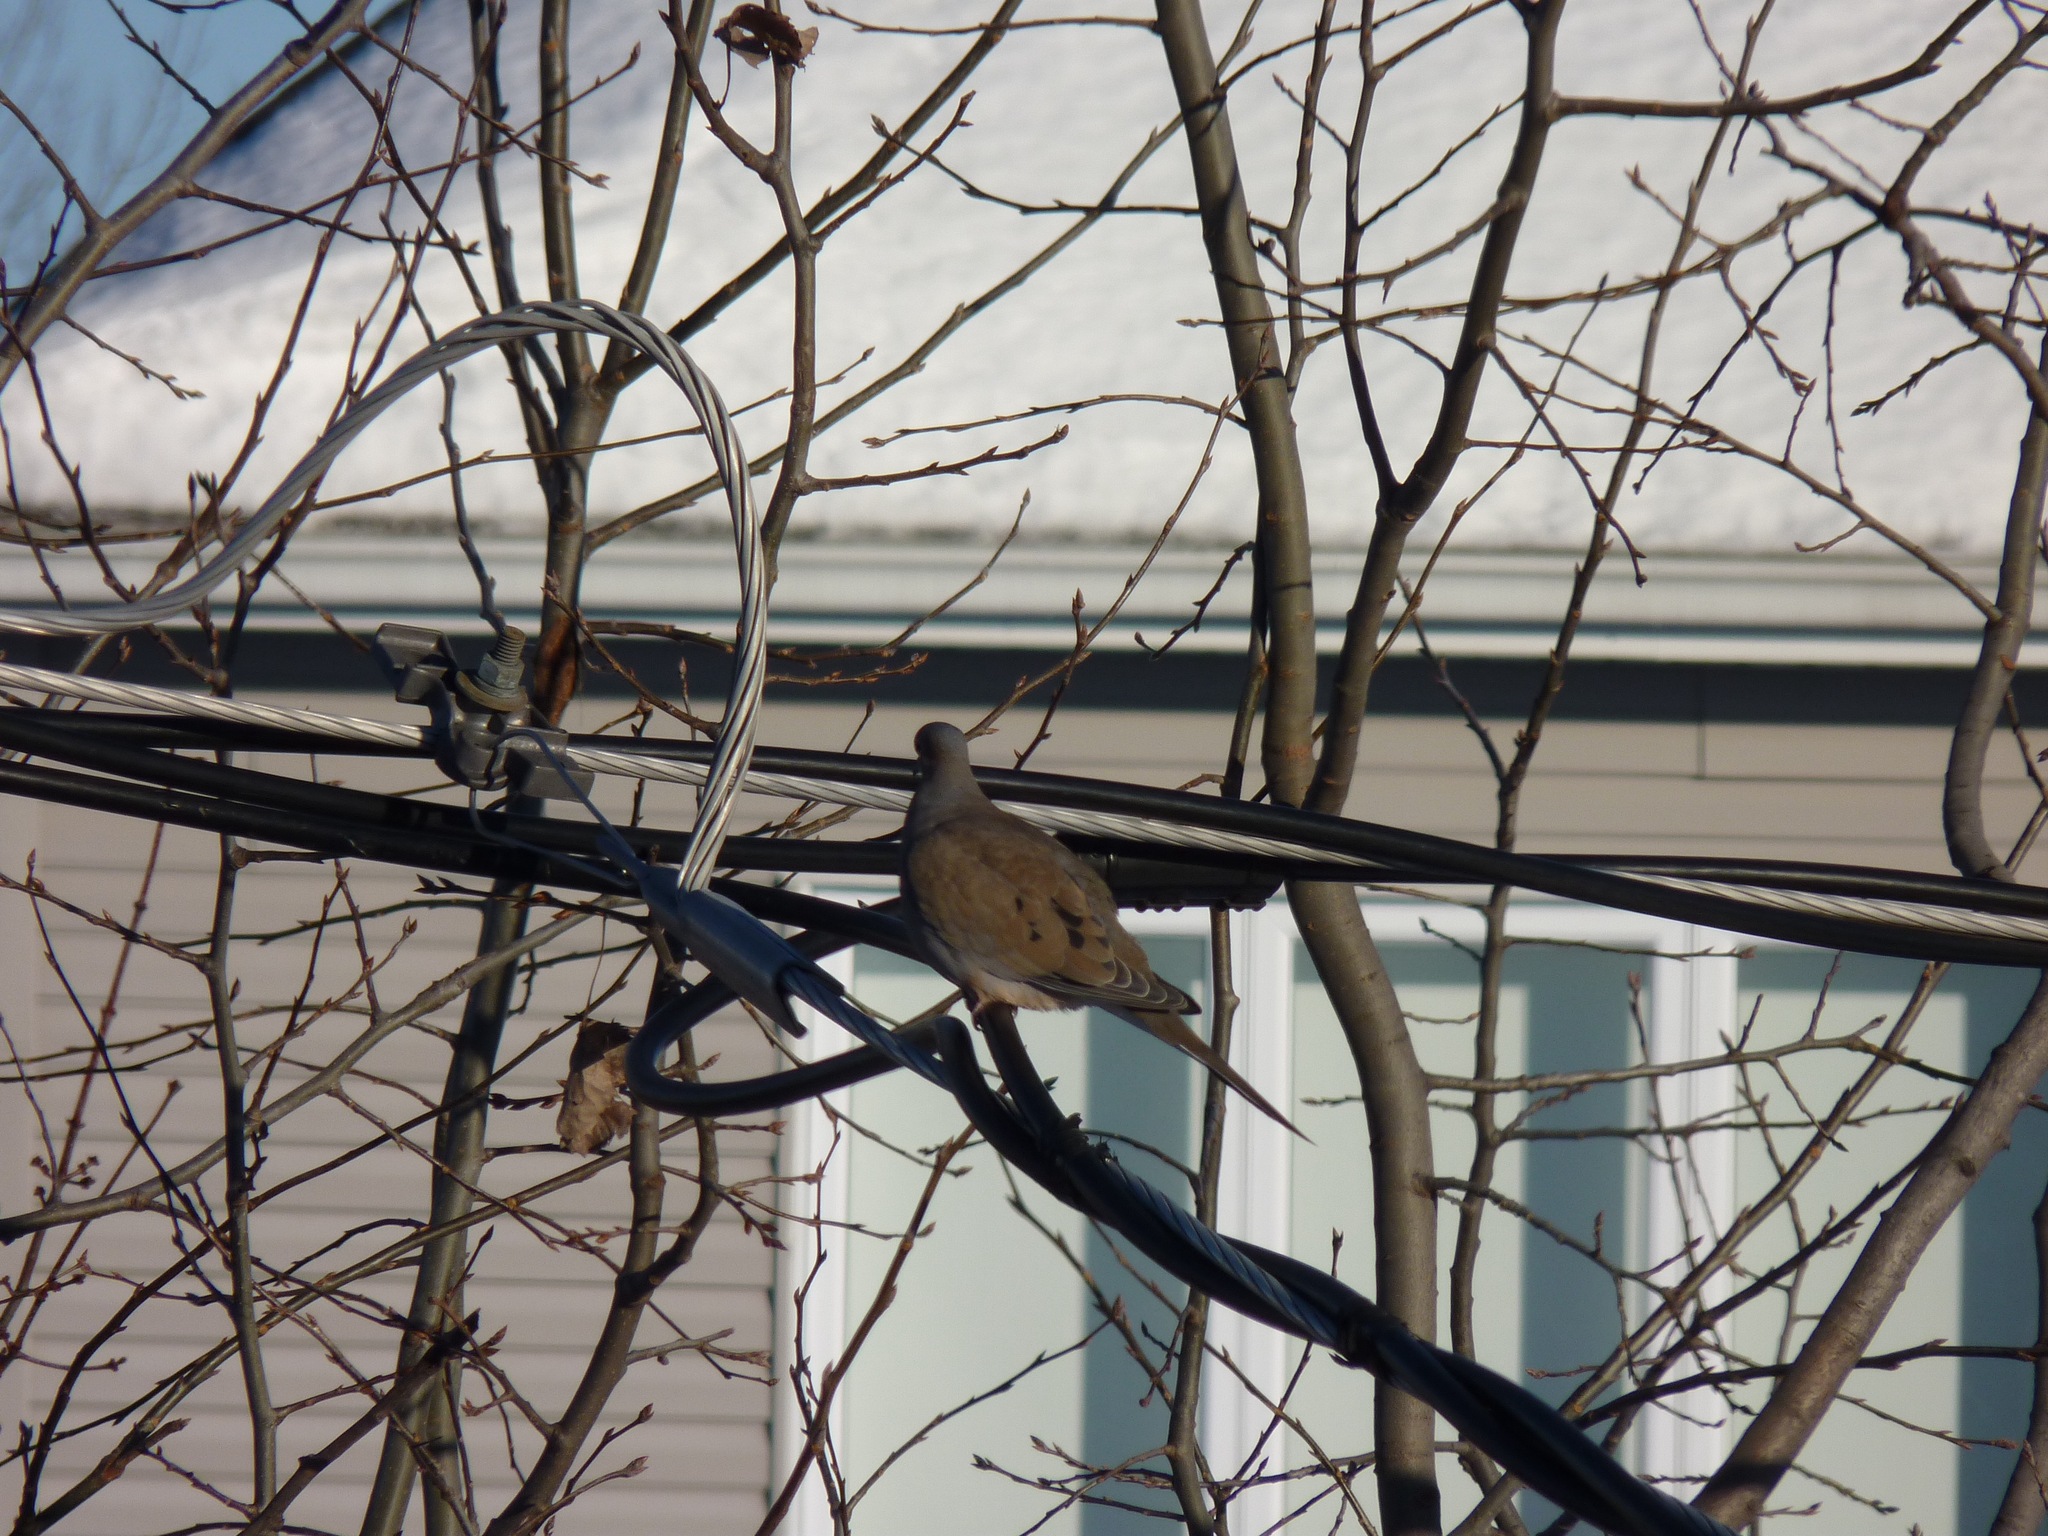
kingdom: Animalia
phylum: Chordata
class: Aves
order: Columbiformes
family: Columbidae
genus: Zenaida
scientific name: Zenaida macroura
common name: Mourning dove
